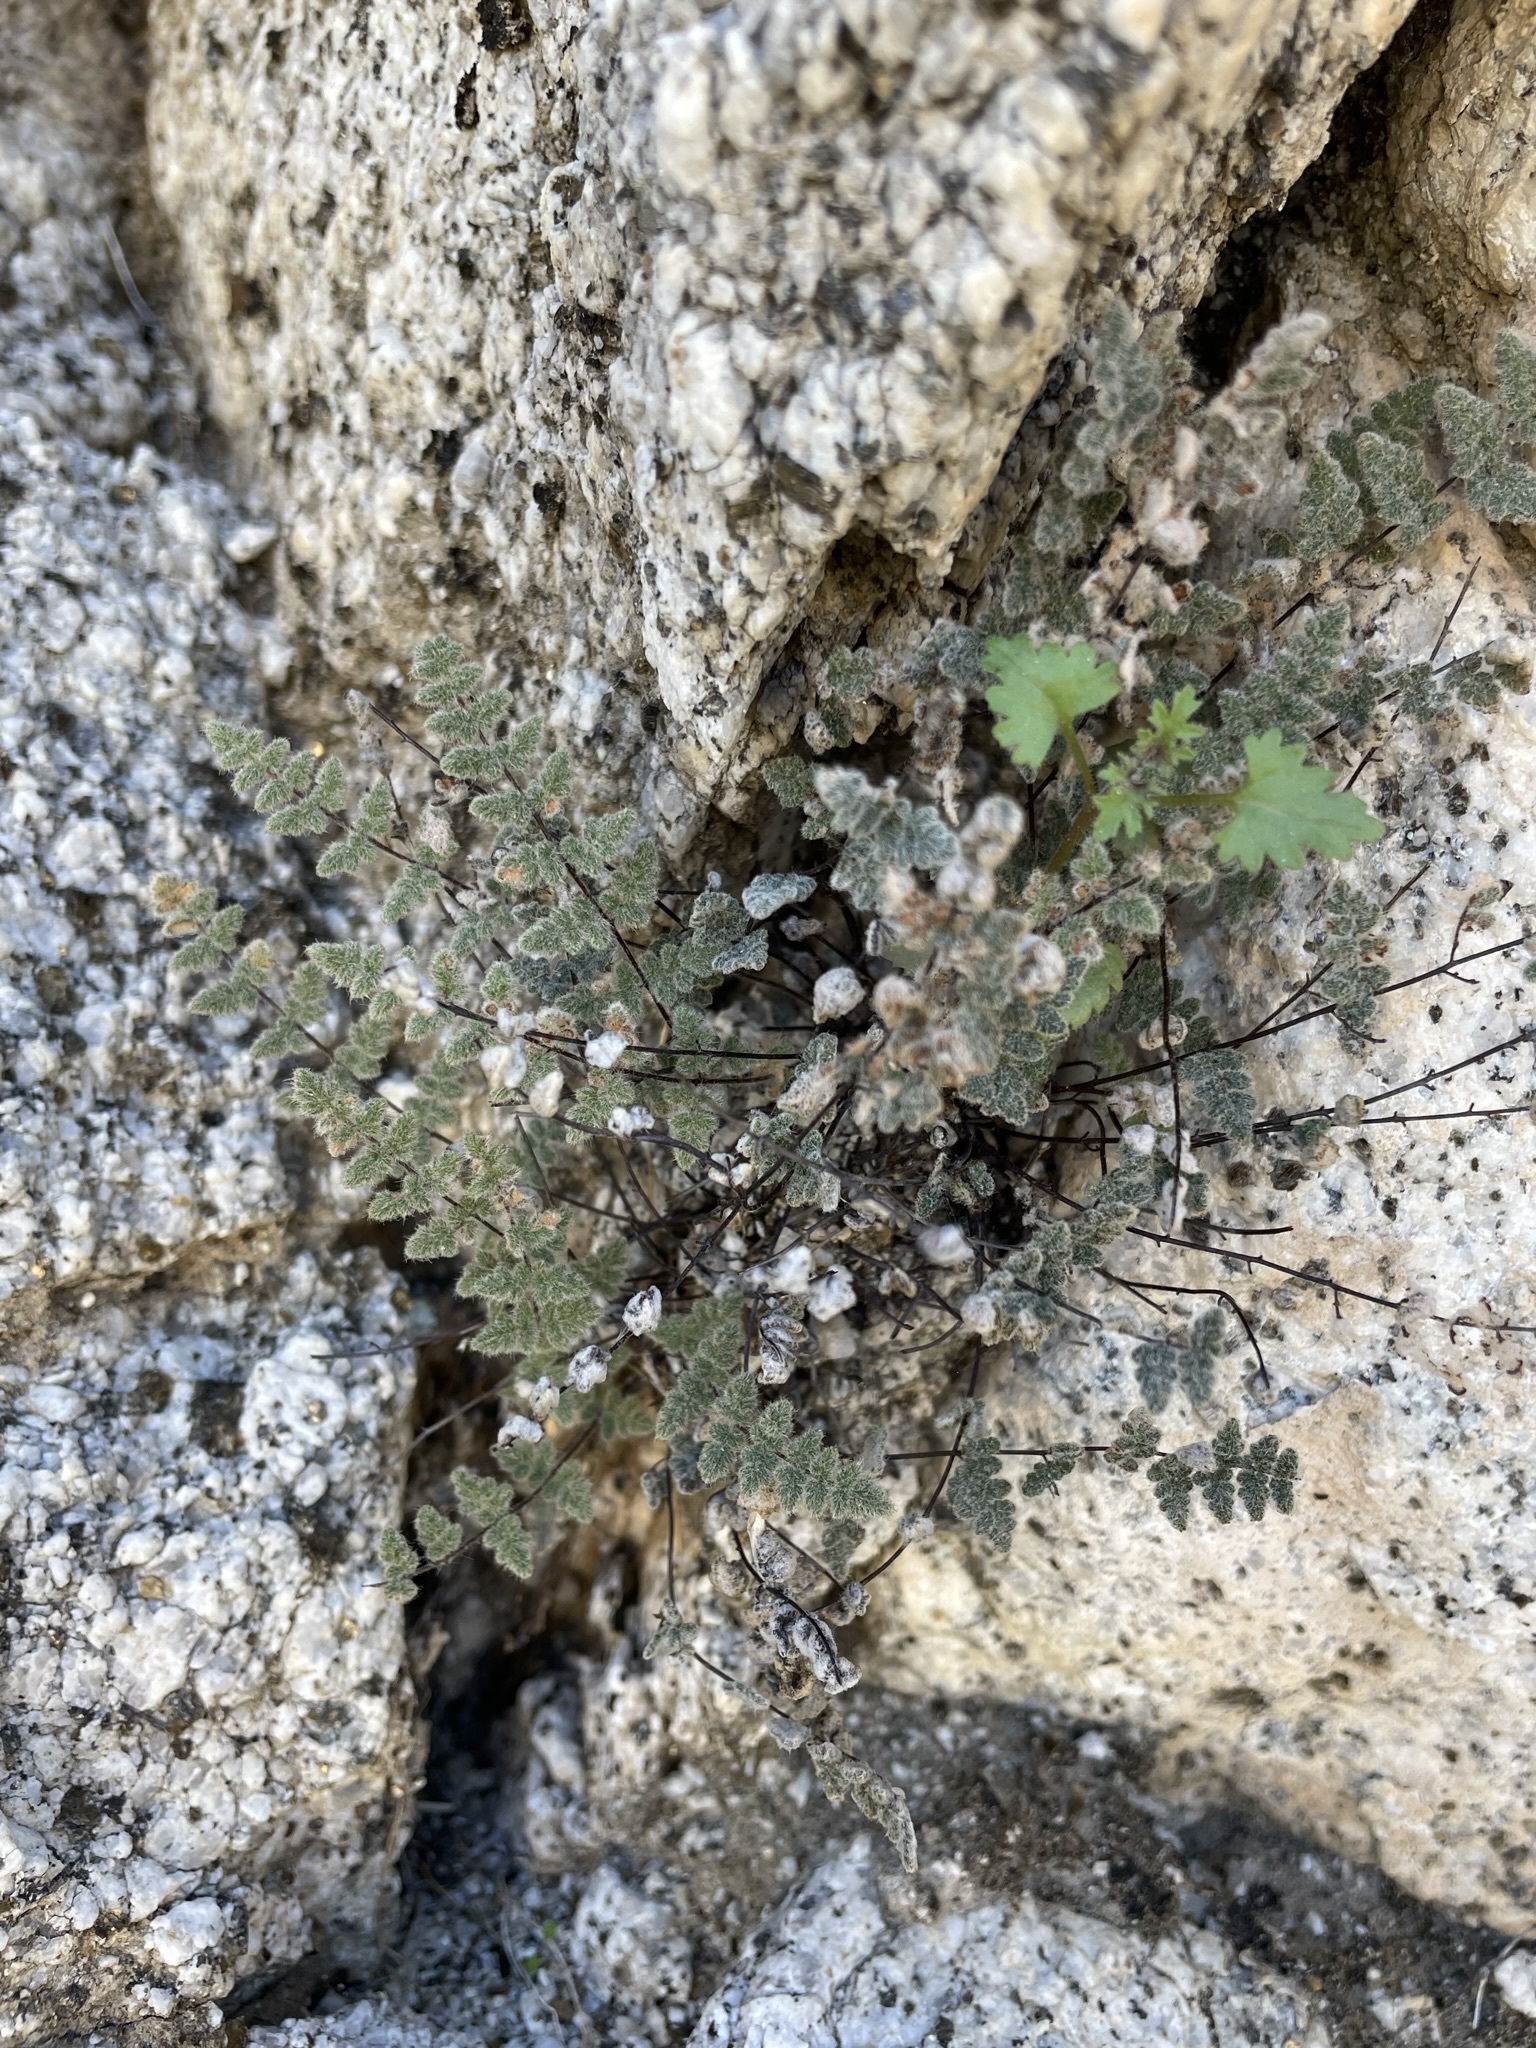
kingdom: Plantae
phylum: Tracheophyta
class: Polypodiopsida
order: Polypodiales
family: Pteridaceae
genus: Myriopteris
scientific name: Myriopteris parryi
